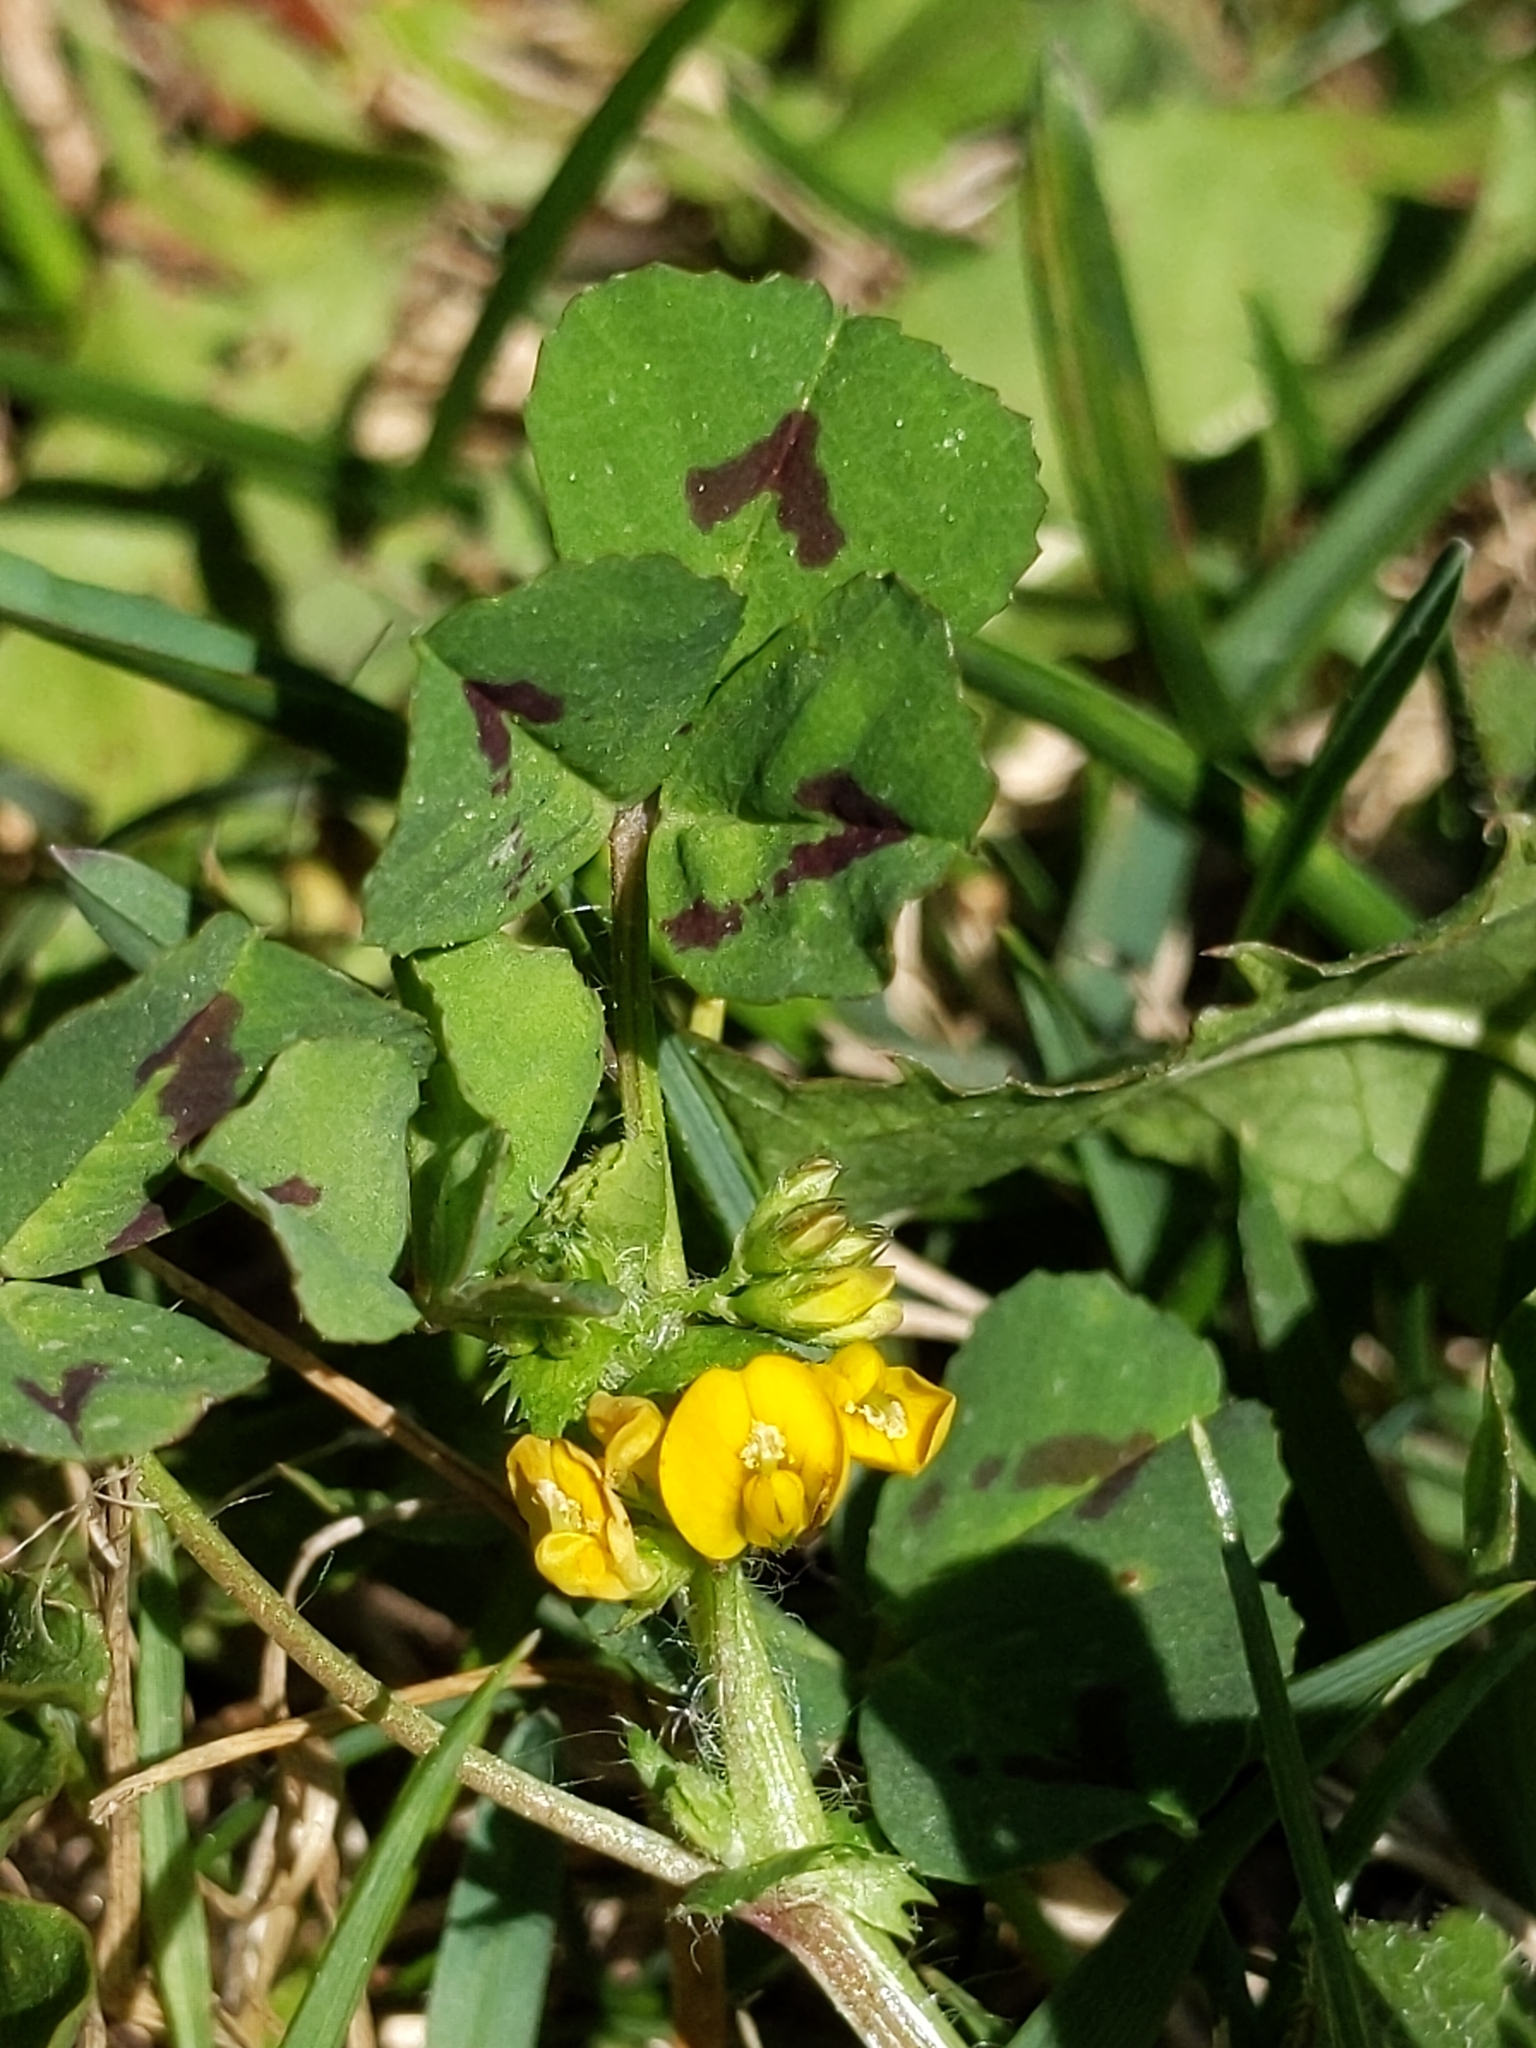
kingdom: Plantae
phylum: Tracheophyta
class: Magnoliopsida
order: Fabales
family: Fabaceae
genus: Medicago
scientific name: Medicago arabica
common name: Spotted medick
